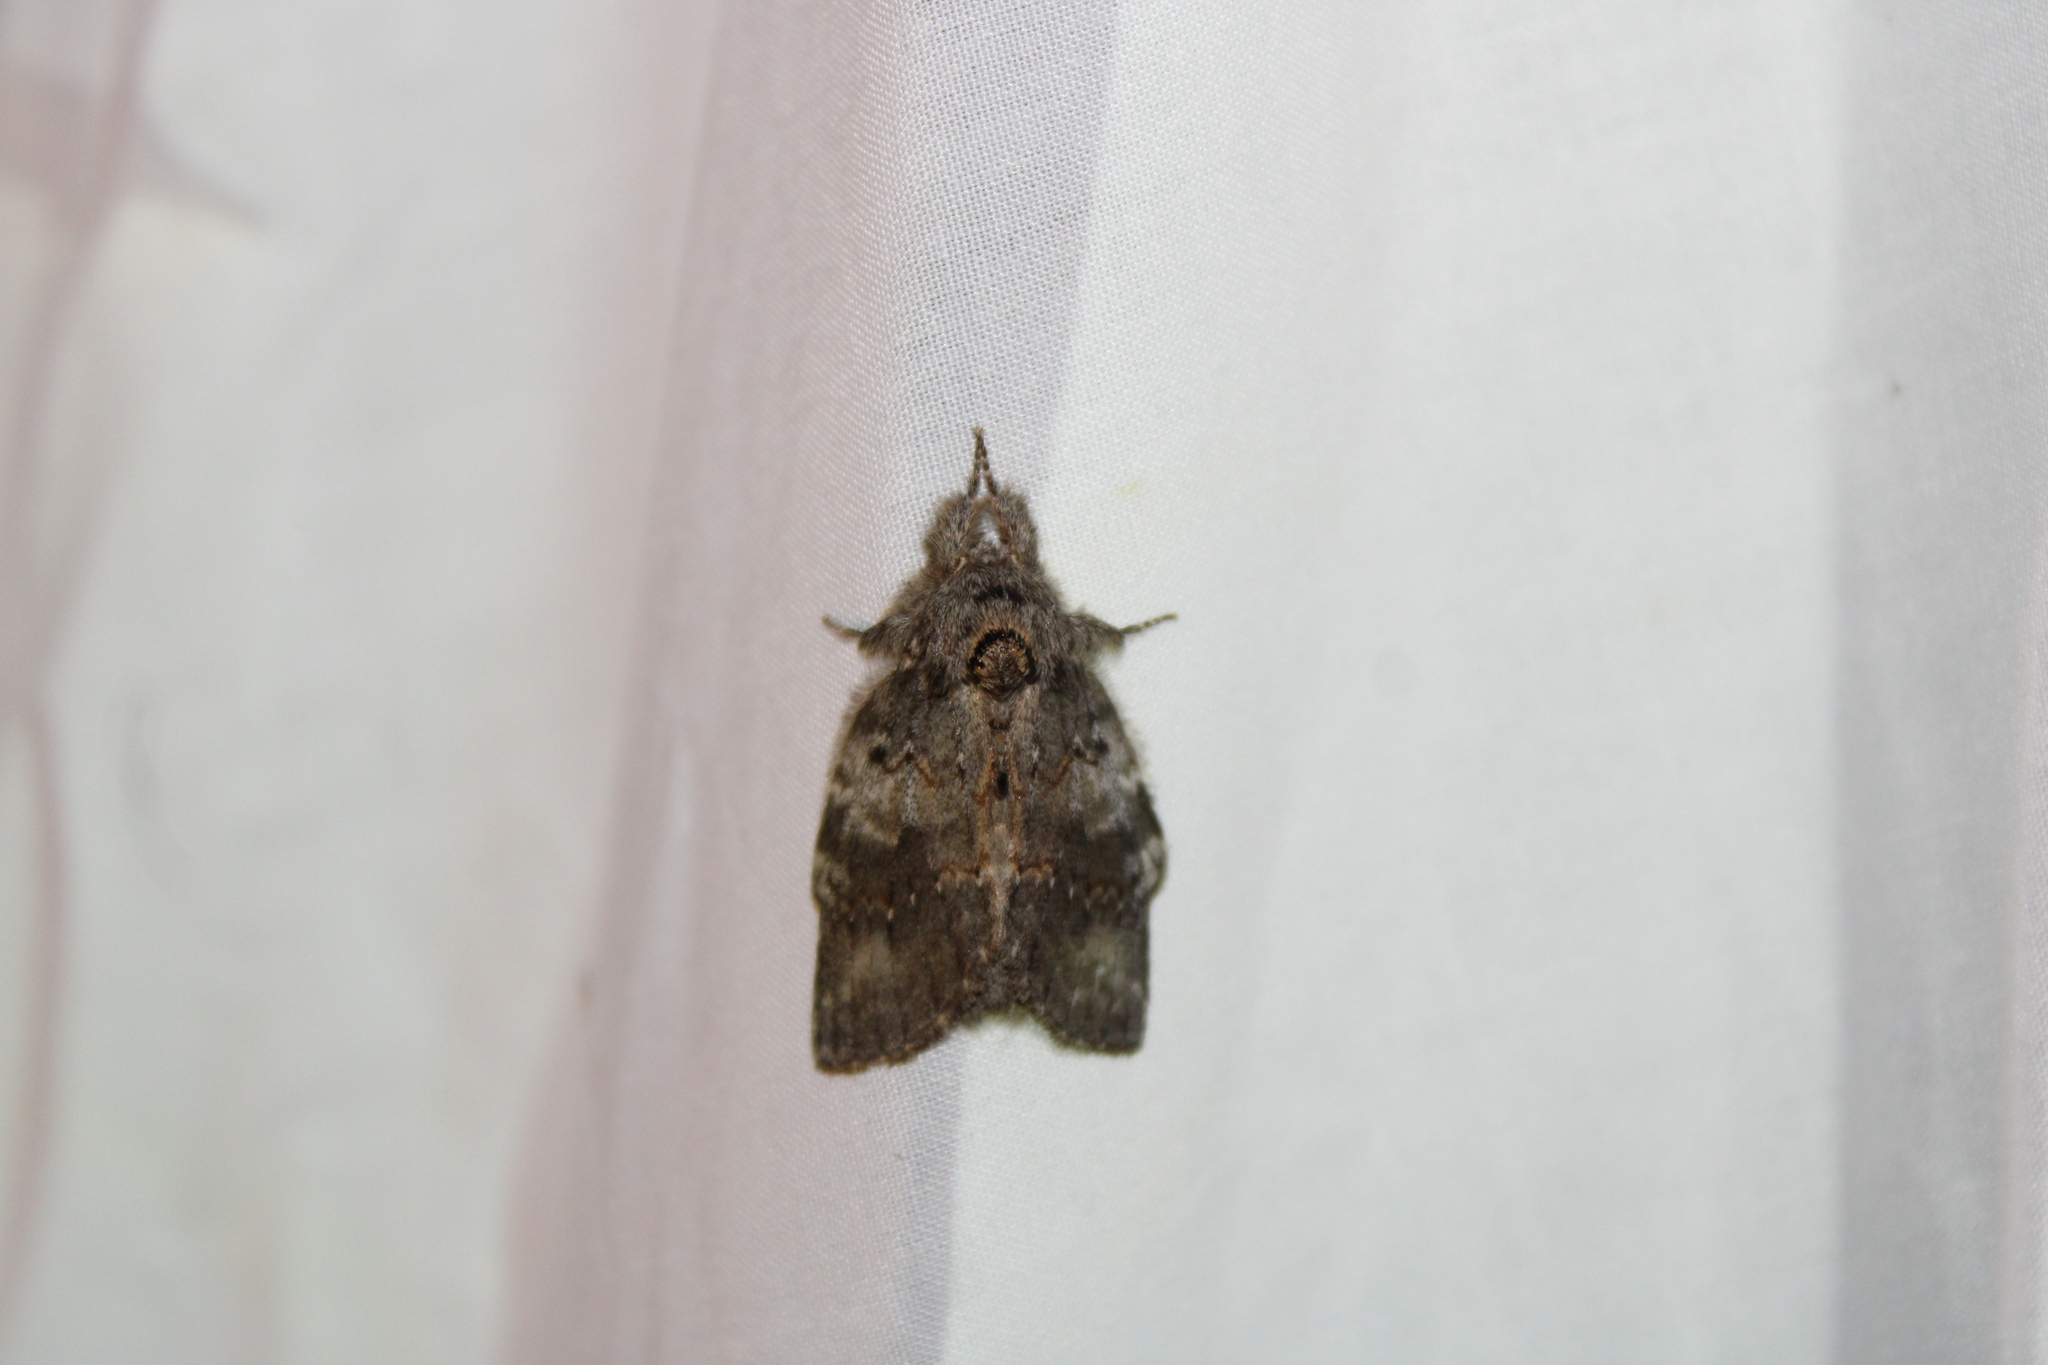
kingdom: Animalia
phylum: Arthropoda
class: Insecta
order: Lepidoptera
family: Notodontidae
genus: Peridea
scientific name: Peridea angulosa
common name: Angulose prominent
